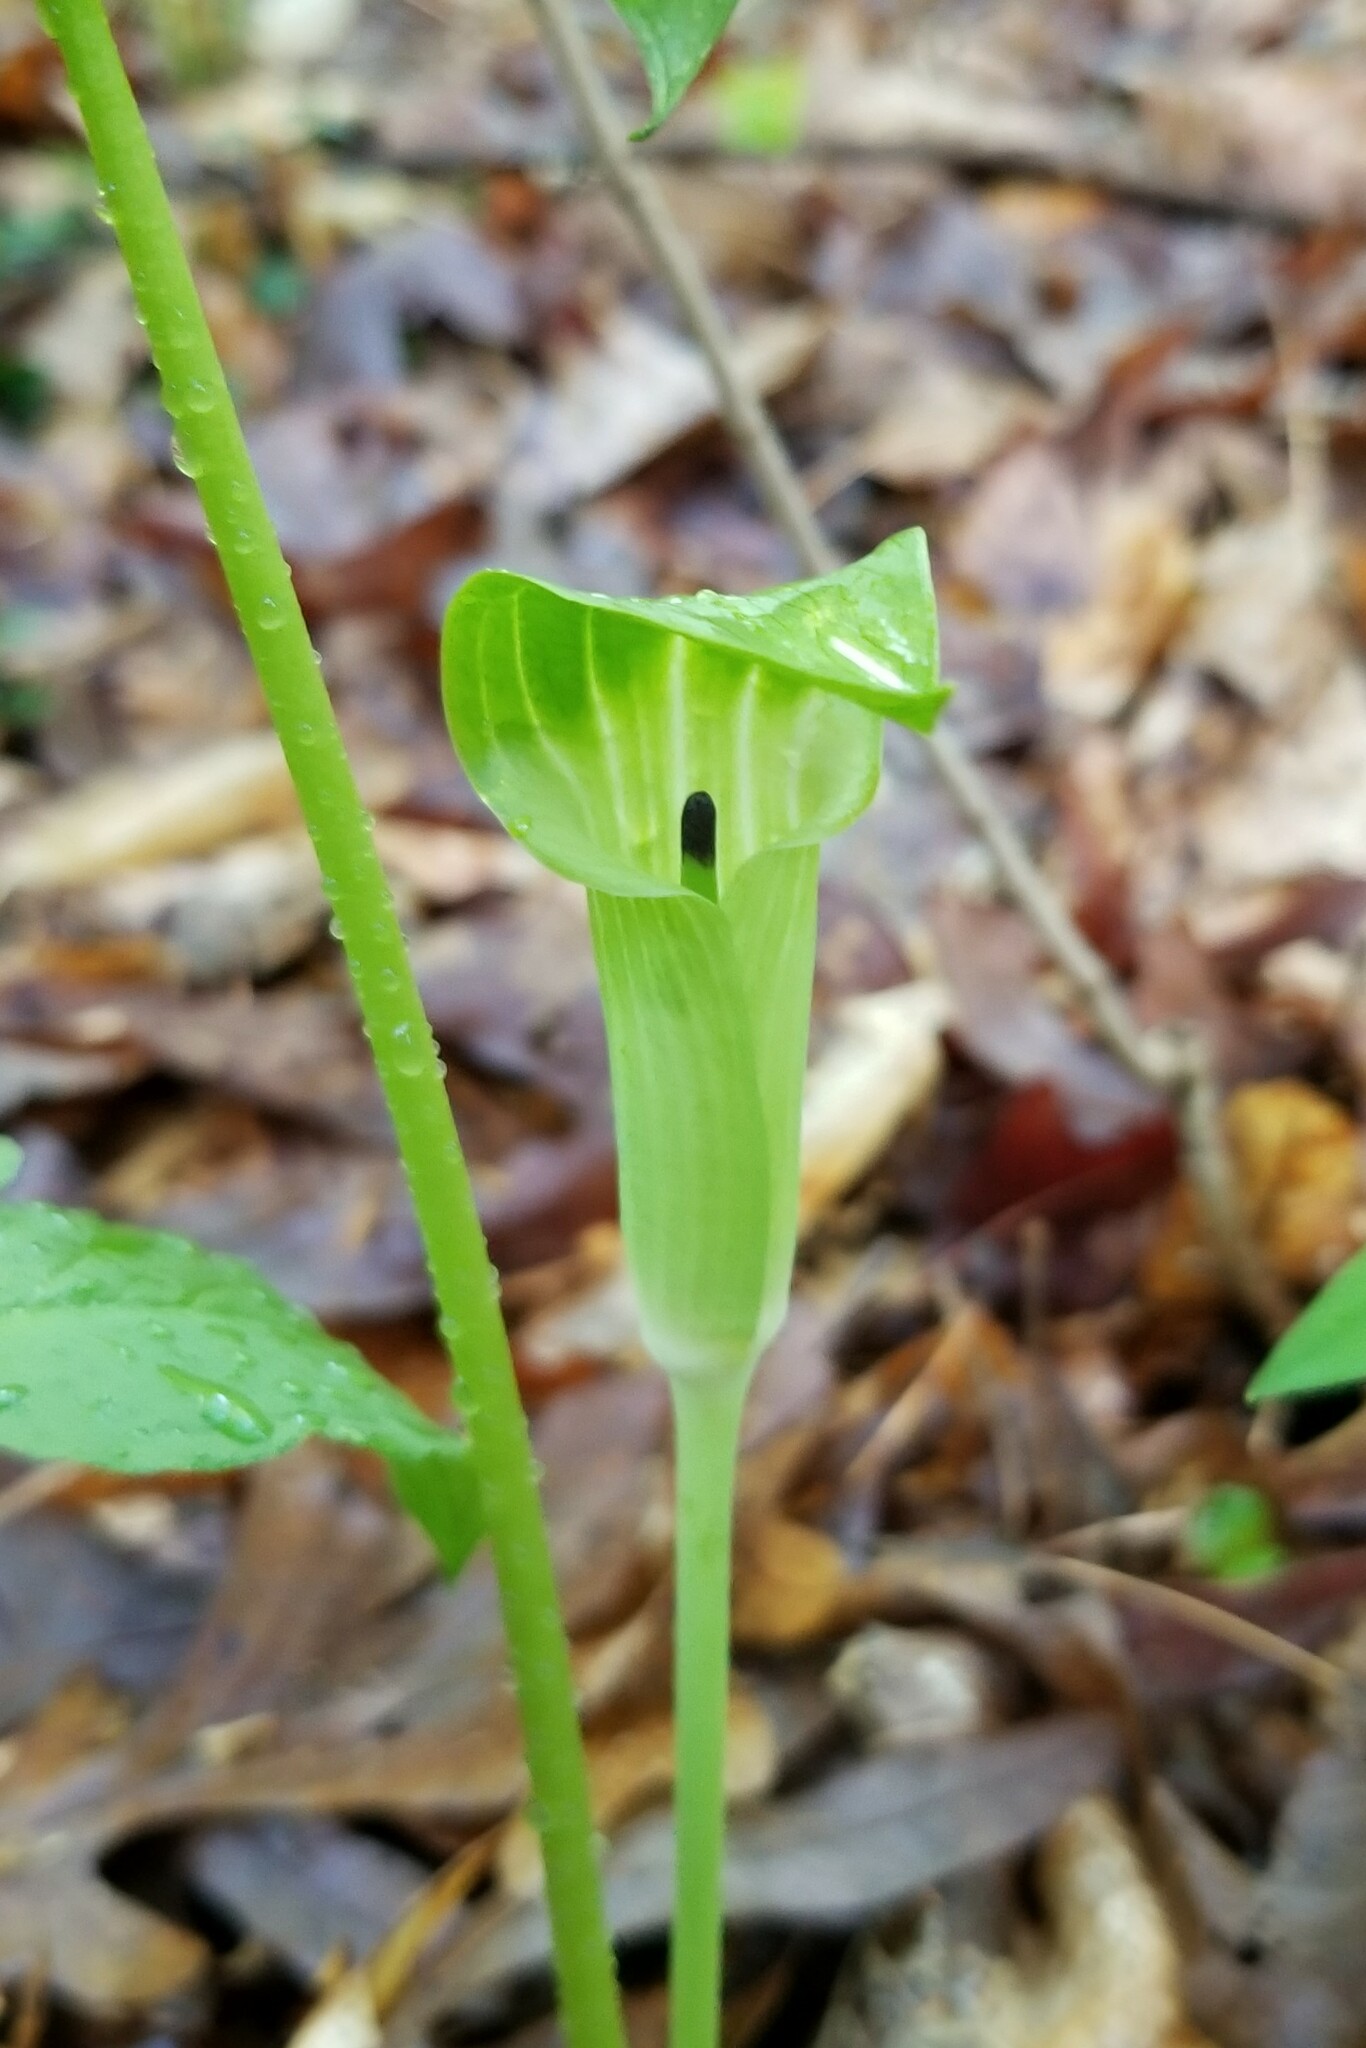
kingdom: Plantae
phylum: Tracheophyta
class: Liliopsida
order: Alismatales
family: Araceae
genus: Arisaema
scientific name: Arisaema pusillum
